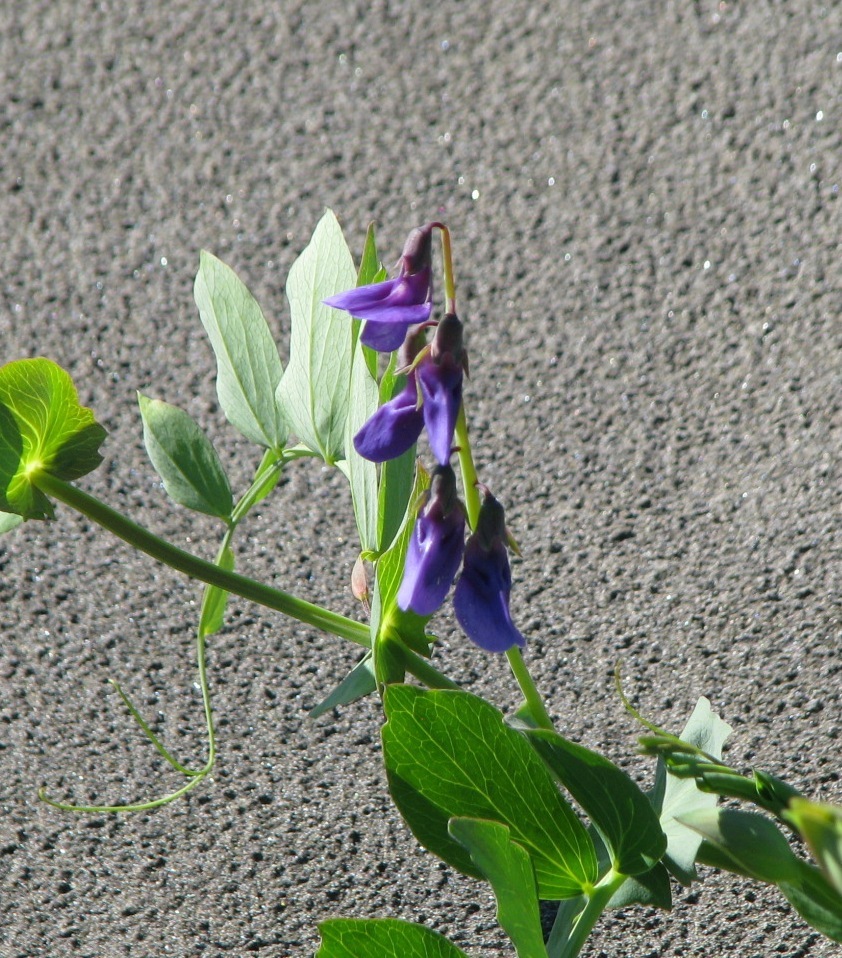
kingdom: Plantae
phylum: Tracheophyta
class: Magnoliopsida
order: Fabales
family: Fabaceae
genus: Lathyrus
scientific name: Lathyrus japonicus
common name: Sea pea
